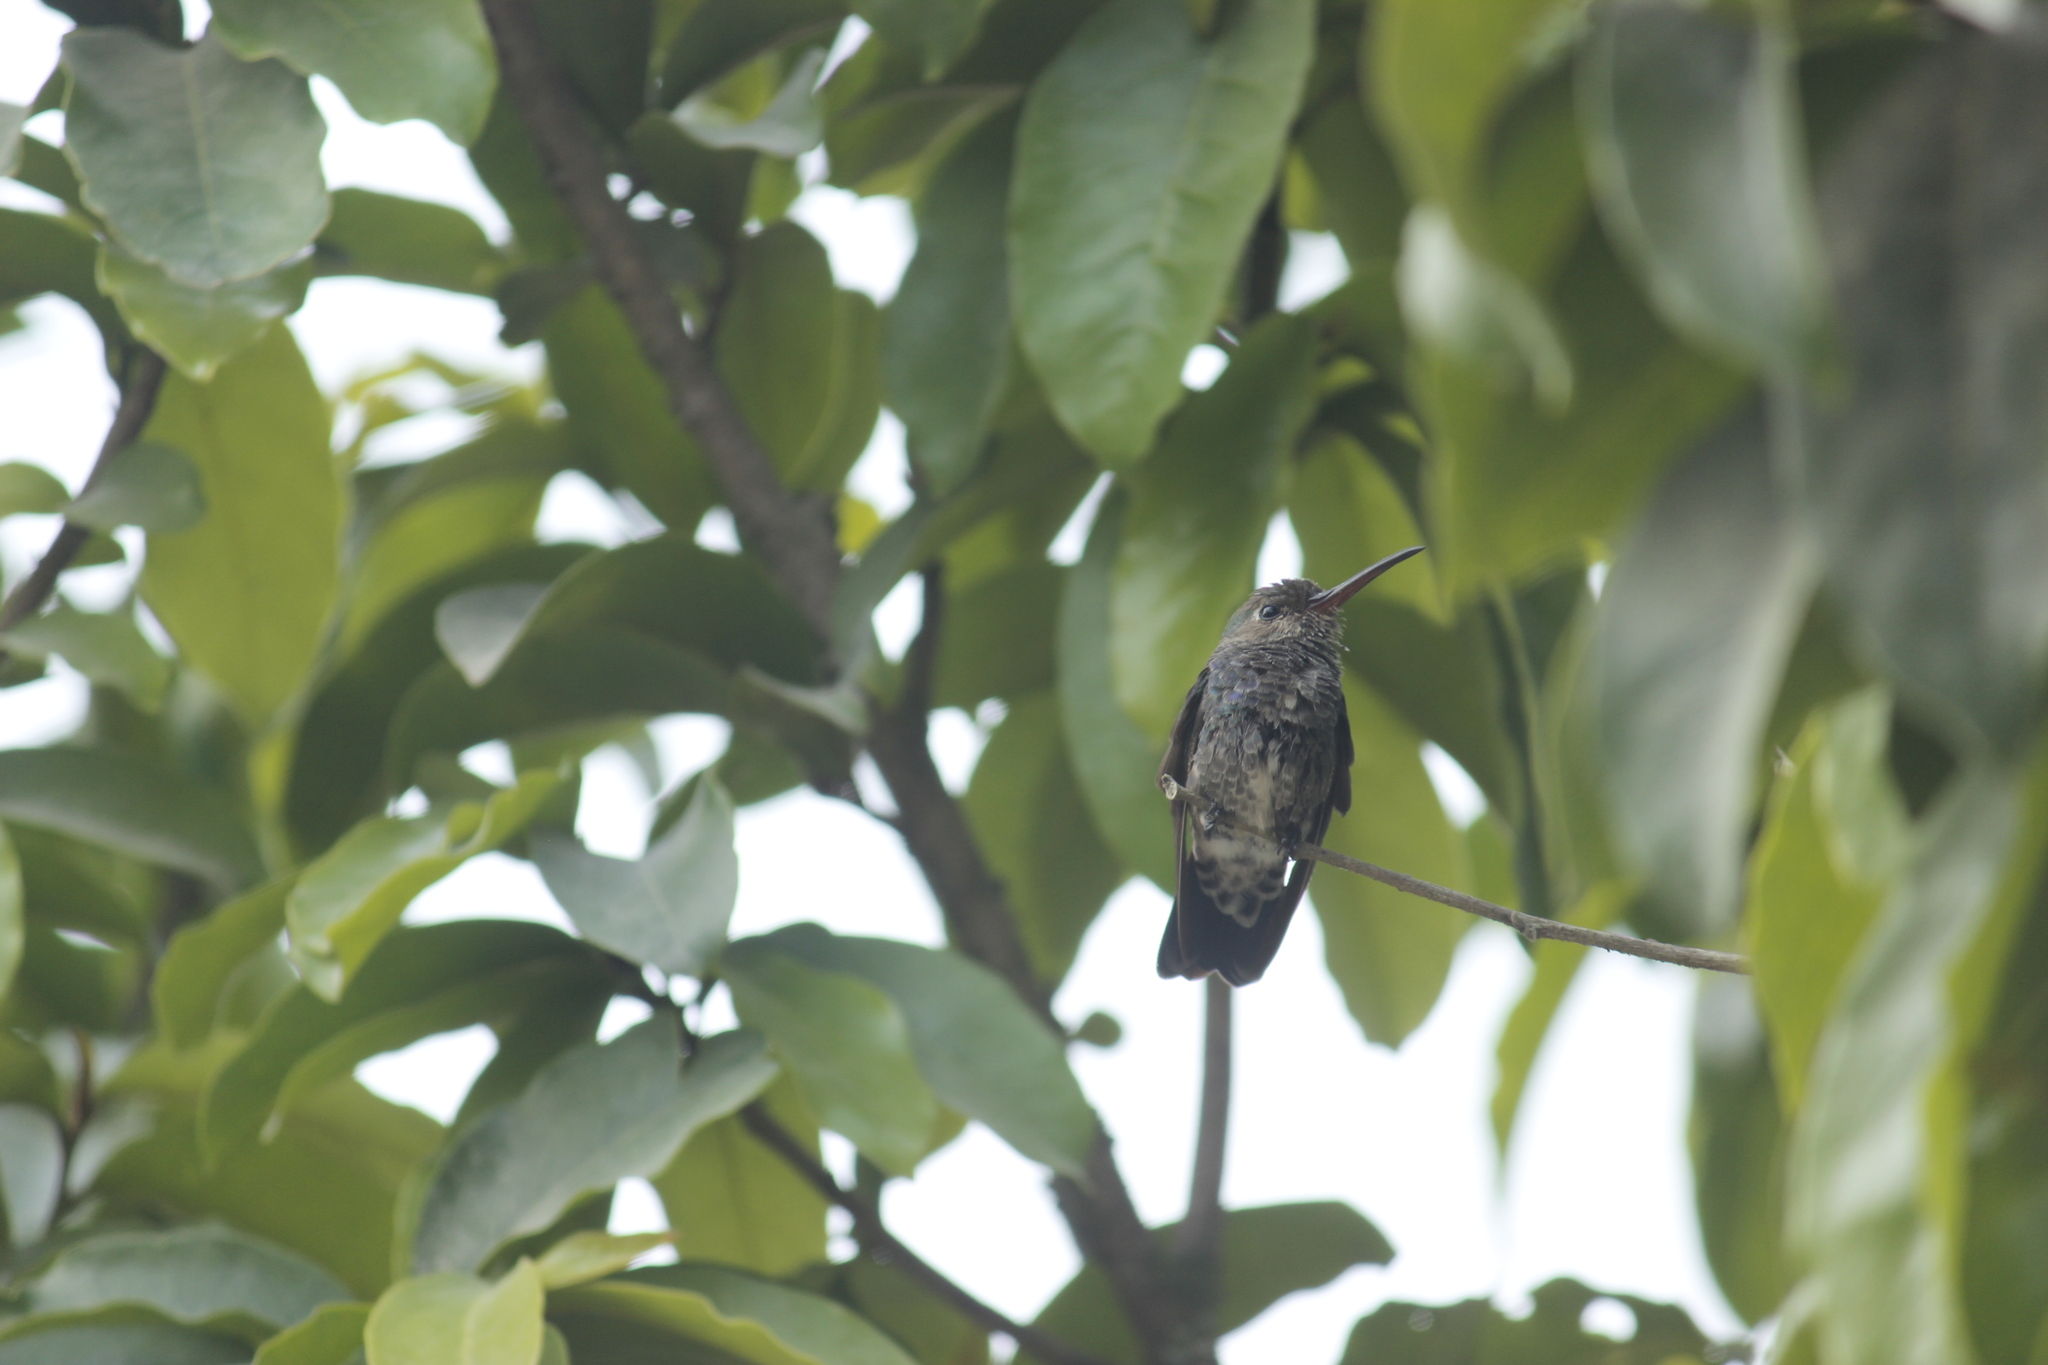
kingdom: Animalia
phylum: Chordata
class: Aves
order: Apodiformes
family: Trochilidae
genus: Chionomesa
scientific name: Chionomesa lactea
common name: Sapphire-spangled emerald
